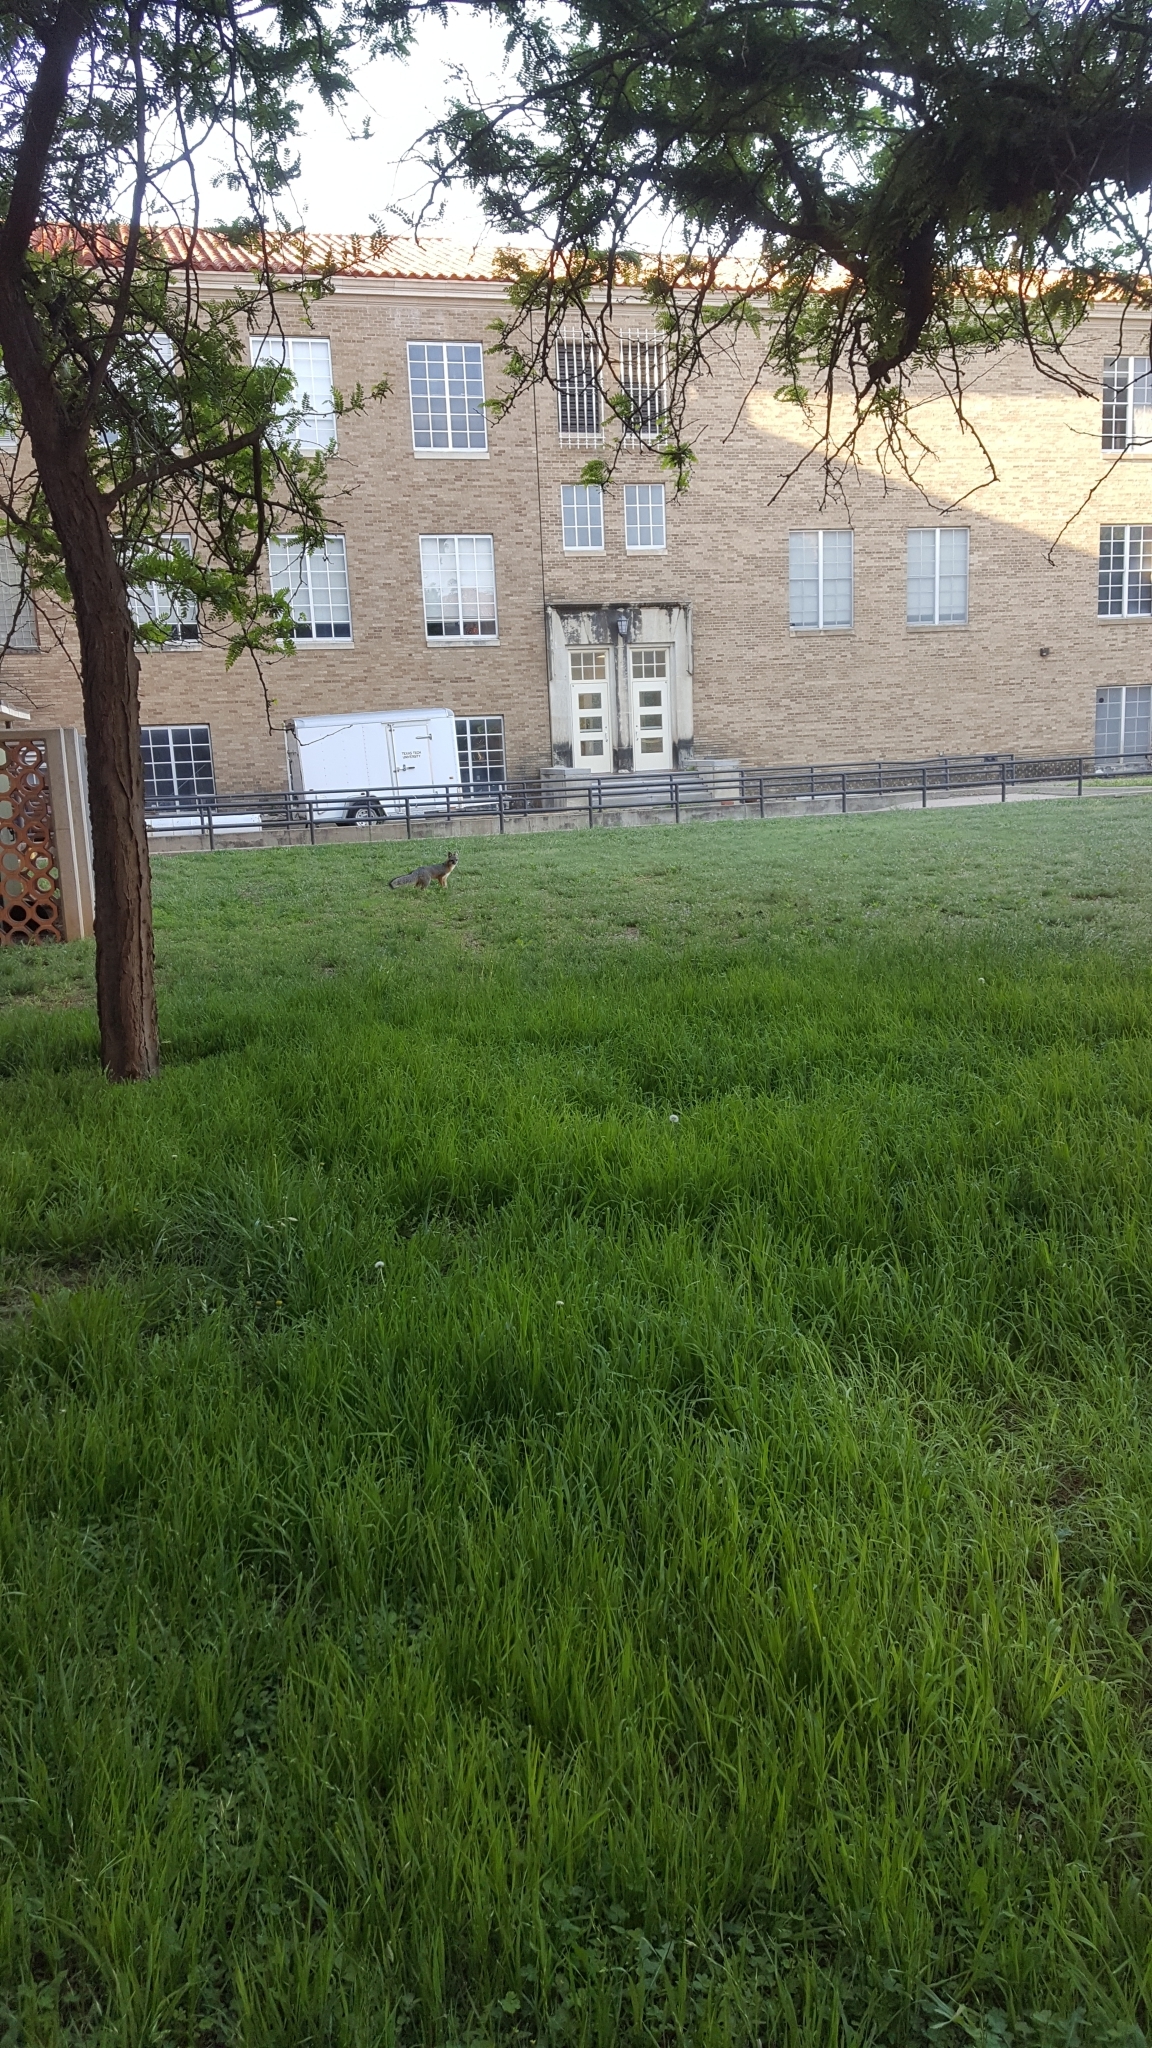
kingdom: Animalia
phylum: Chordata
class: Mammalia
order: Carnivora
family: Canidae
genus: Urocyon
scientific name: Urocyon cinereoargenteus
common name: Gray fox
